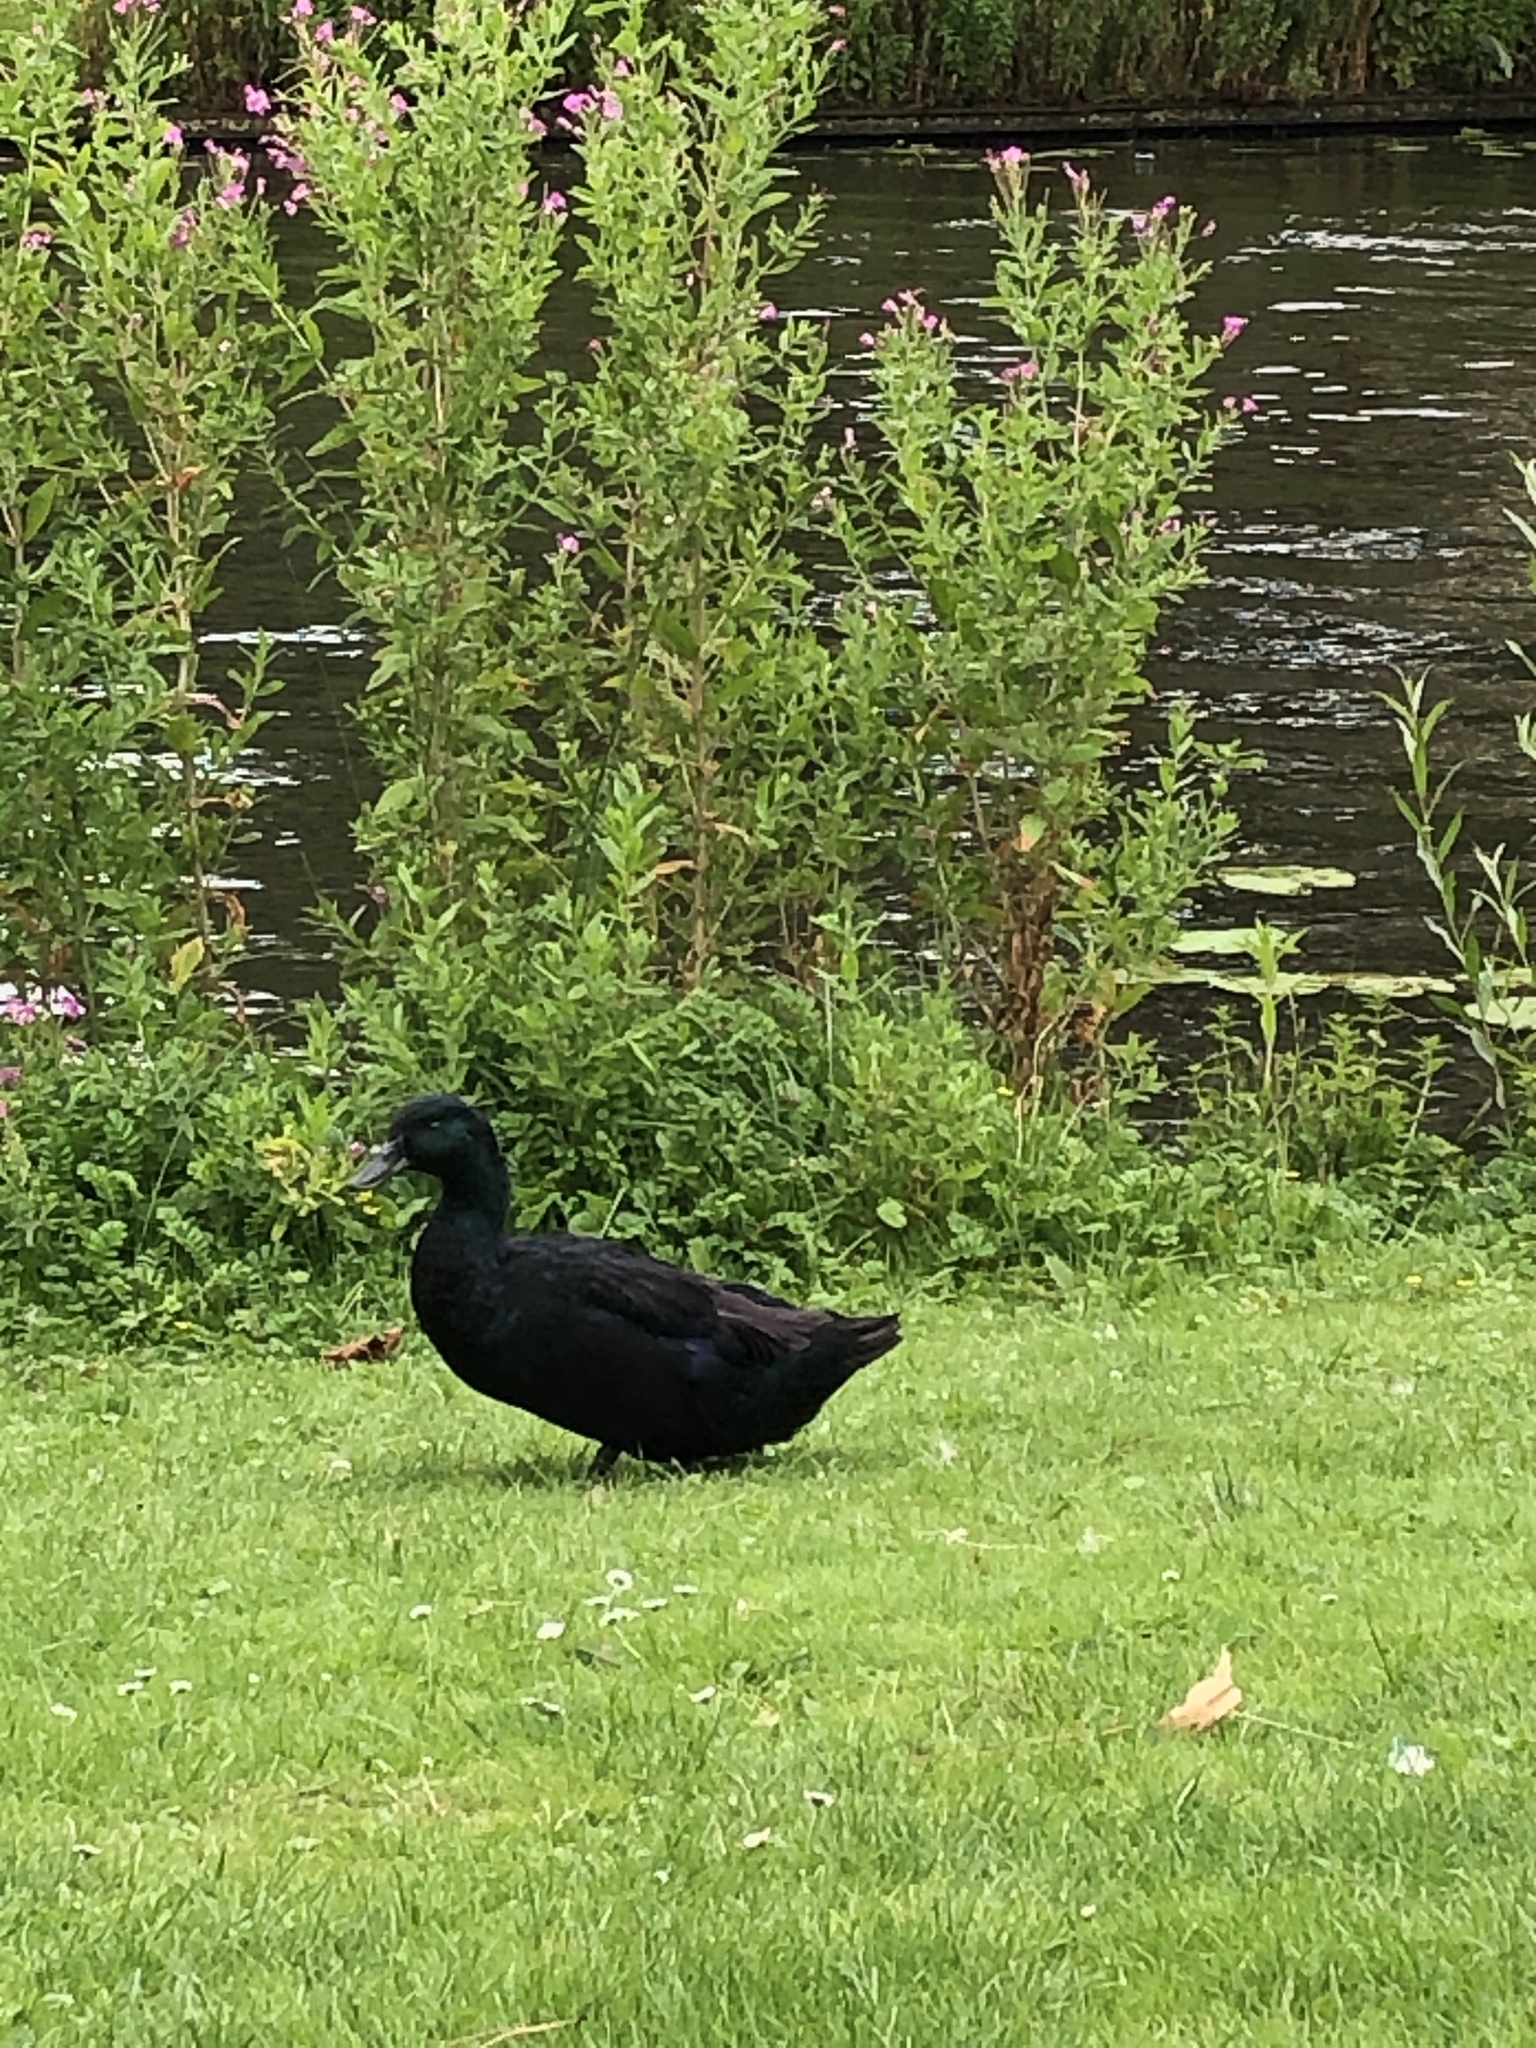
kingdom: Animalia
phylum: Chordata
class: Aves
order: Anseriformes
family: Anatidae
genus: Anas
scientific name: Anas platyrhynchos
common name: Mallard
